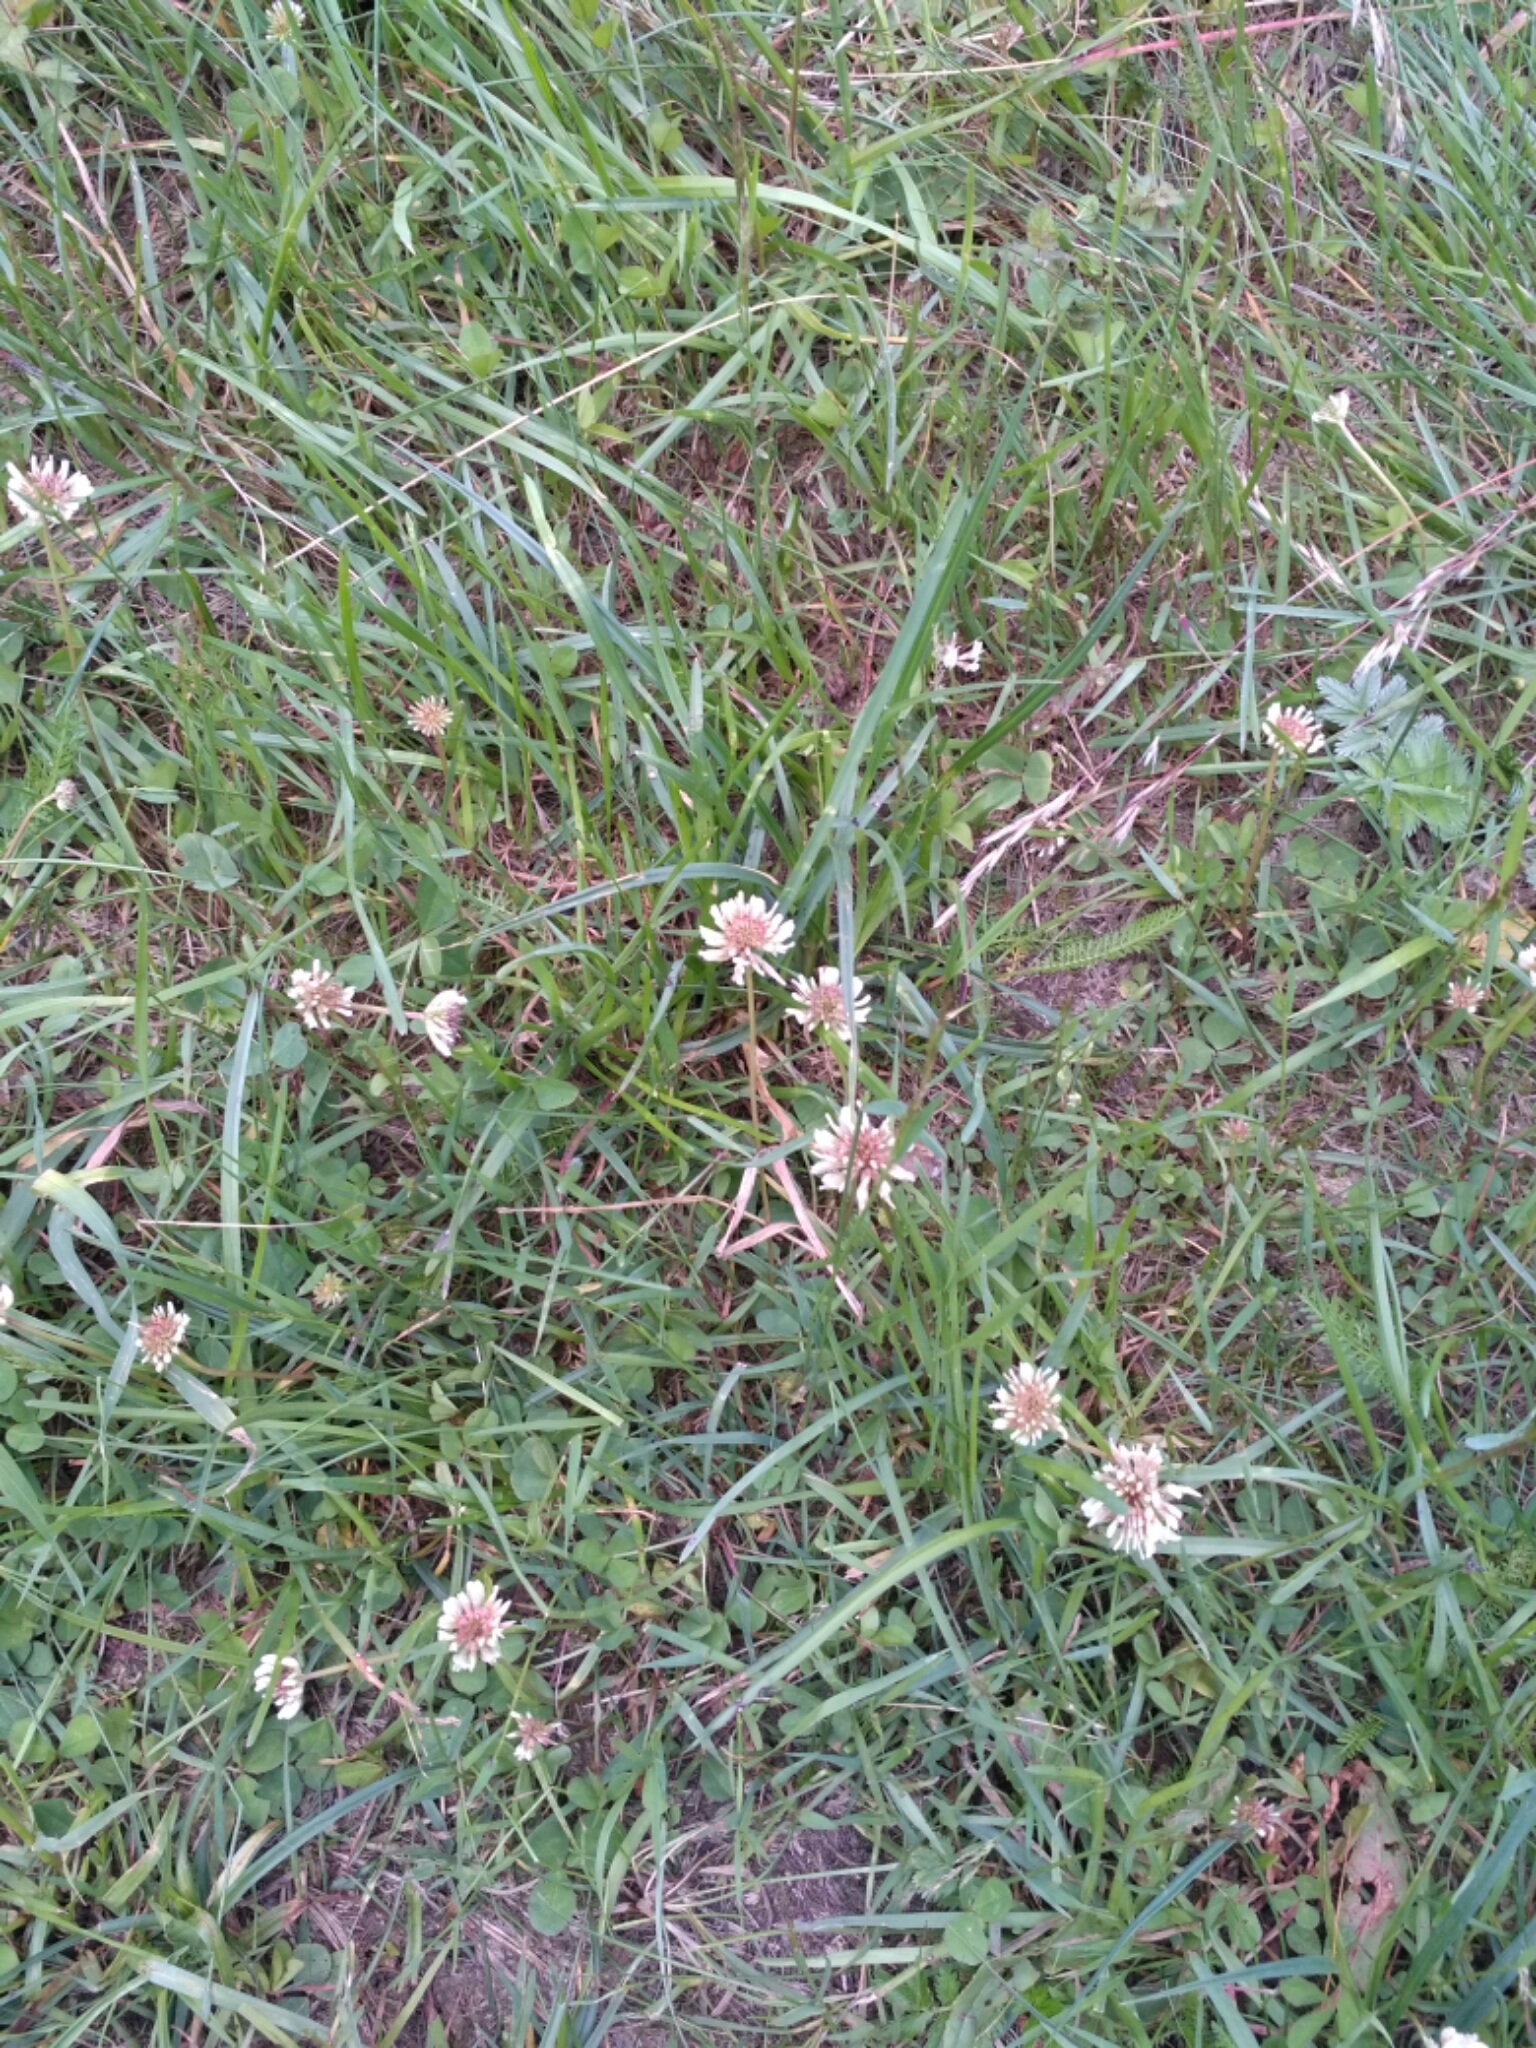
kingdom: Plantae
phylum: Tracheophyta
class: Magnoliopsida
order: Fabales
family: Fabaceae
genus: Trifolium
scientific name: Trifolium repens
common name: White clover
